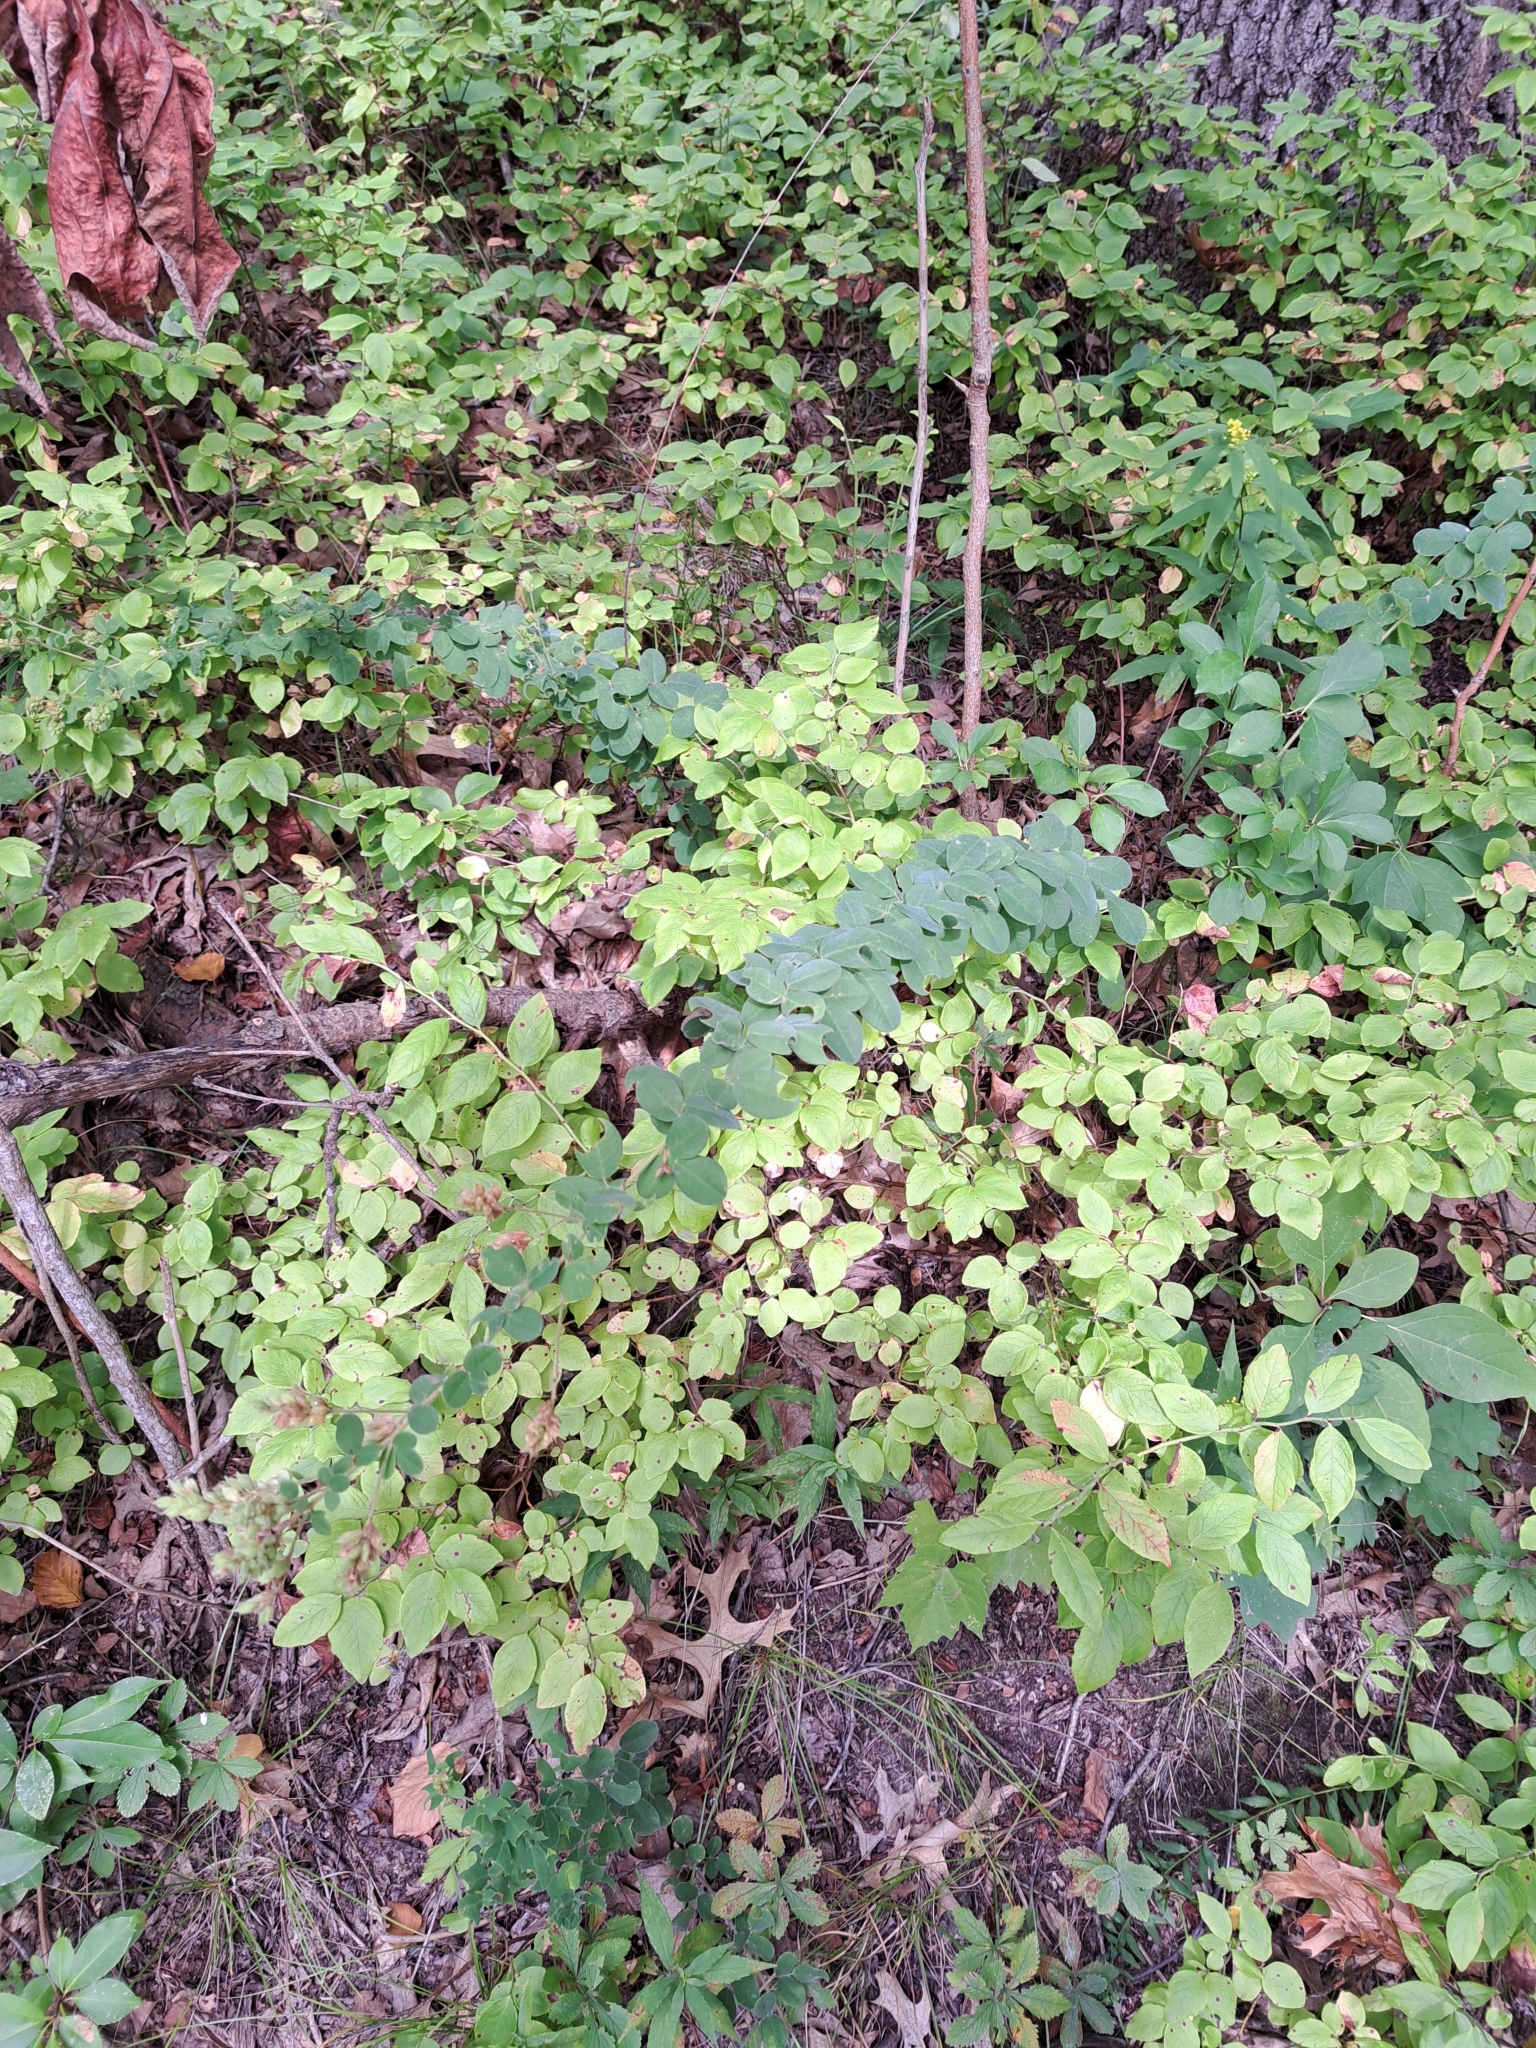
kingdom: Plantae
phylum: Tracheophyta
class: Magnoliopsida
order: Fabales
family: Fabaceae
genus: Lespedeza
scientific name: Lespedeza hirta
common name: Hairy lespedeza
